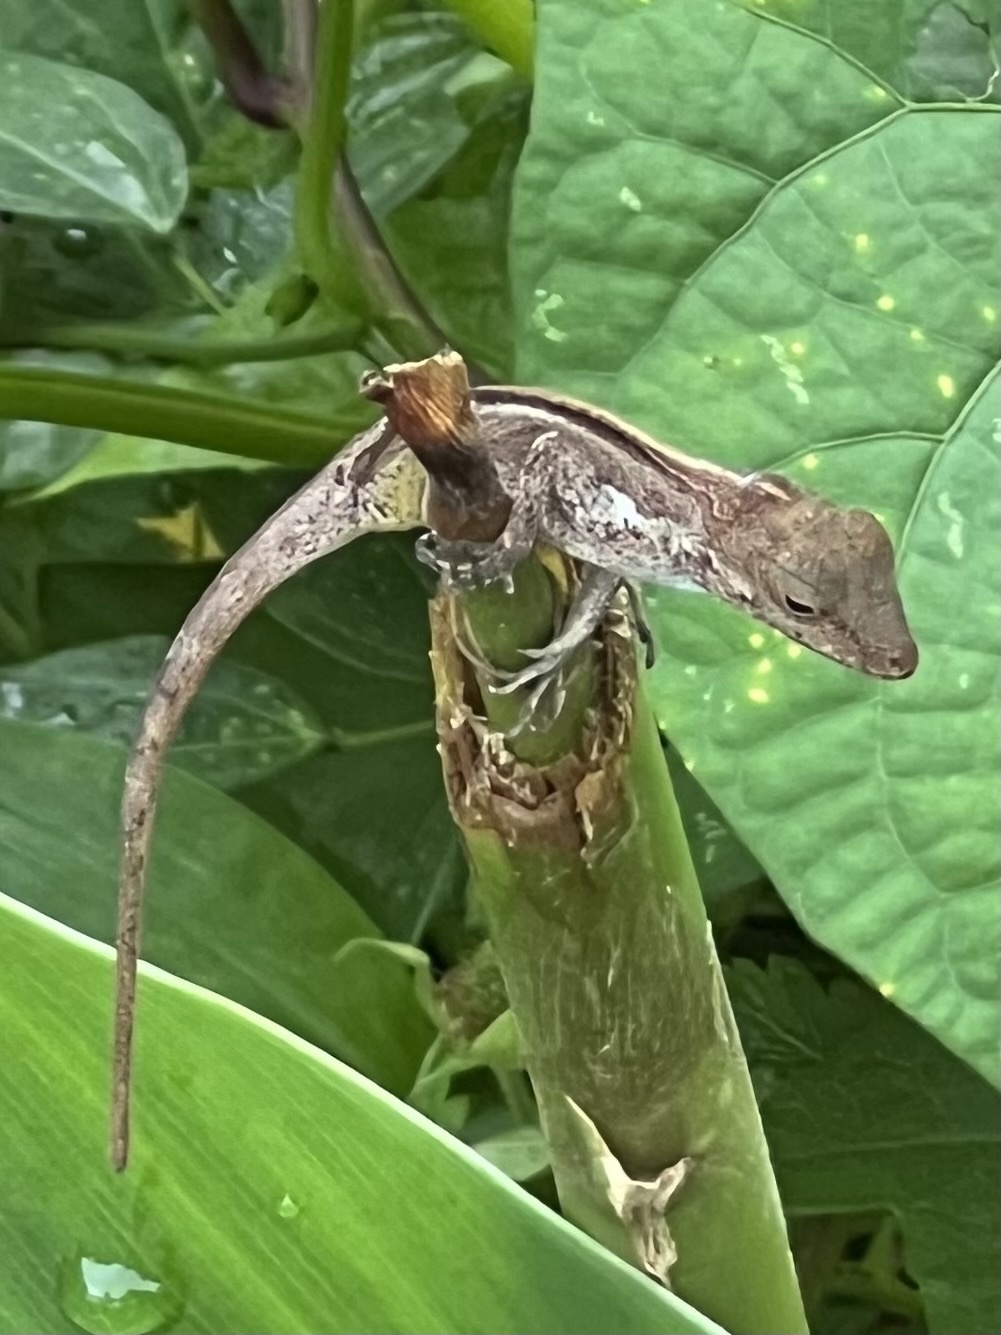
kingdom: Animalia
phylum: Chordata
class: Squamata
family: Dactyloidae
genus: Anolis
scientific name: Anolis cristatellus
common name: Crested anole
